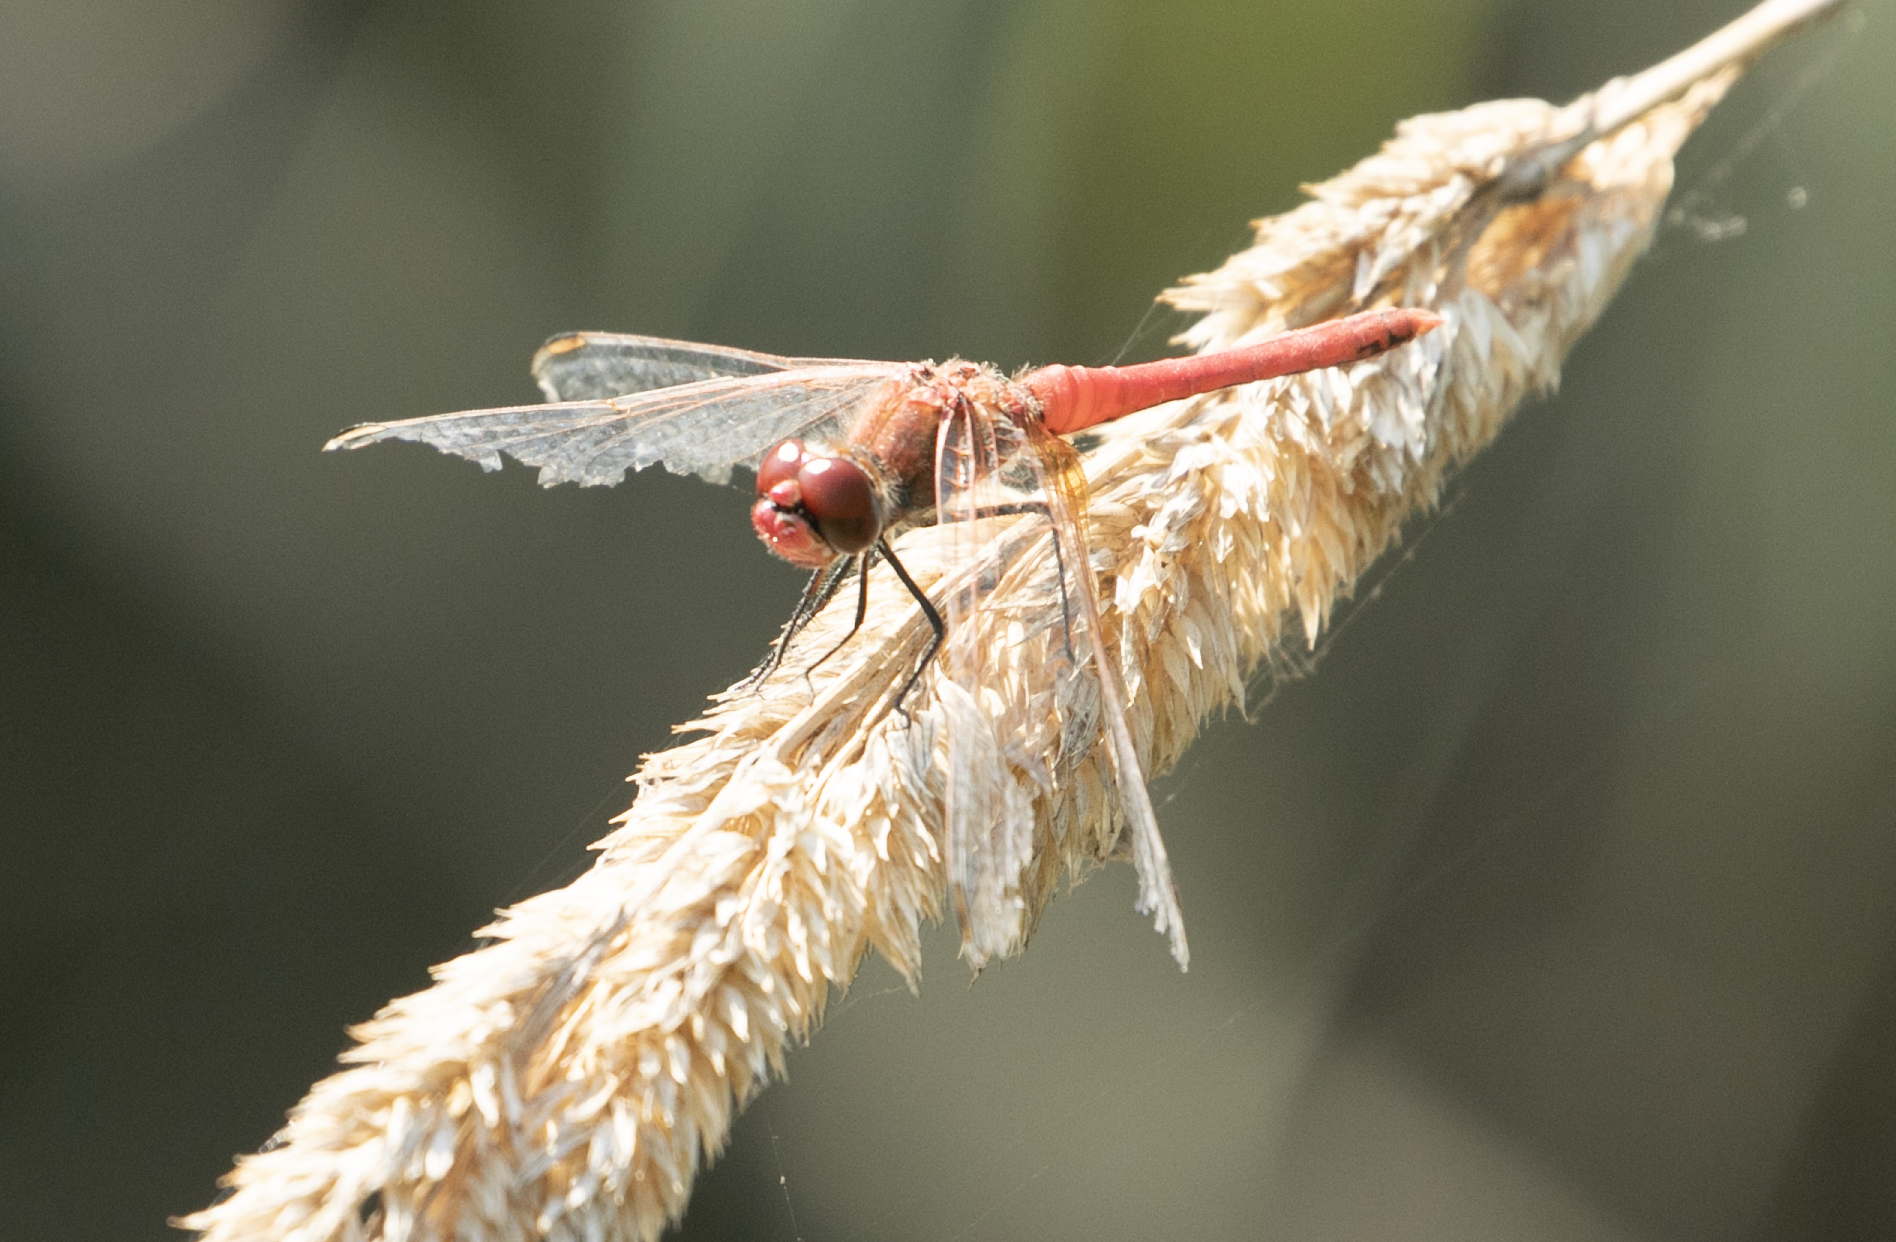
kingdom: Animalia
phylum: Arthropoda
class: Insecta
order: Odonata
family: Libellulidae
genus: Sympetrum
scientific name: Sympetrum fonscolombii
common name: Red-veined darter
